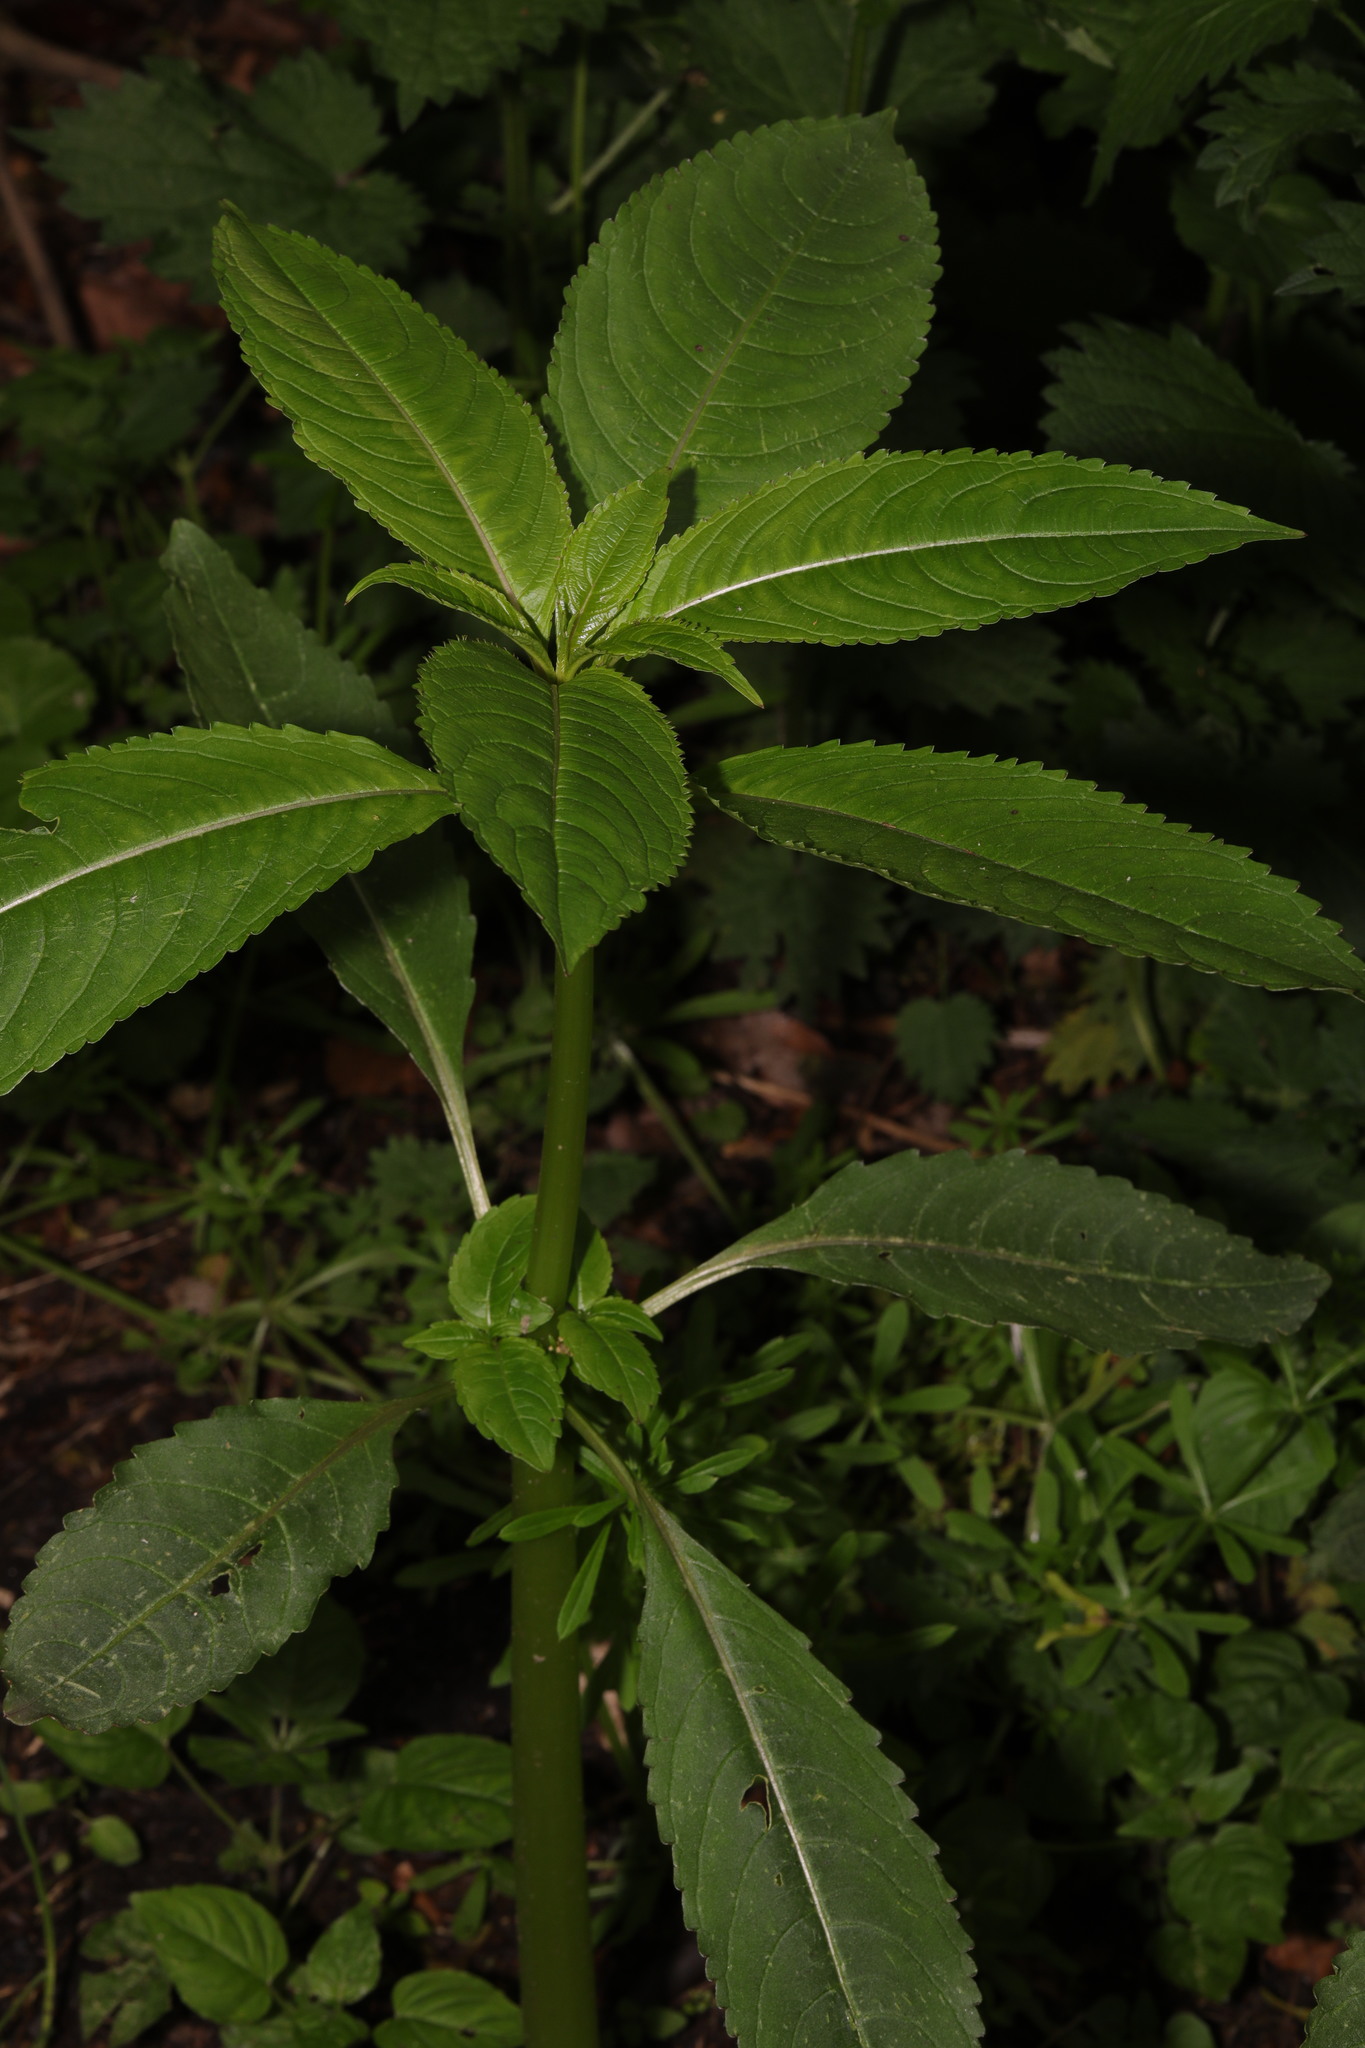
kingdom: Plantae
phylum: Tracheophyta
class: Magnoliopsida
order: Ericales
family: Balsaminaceae
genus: Impatiens
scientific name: Impatiens glandulifera
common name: Himalayan balsam
